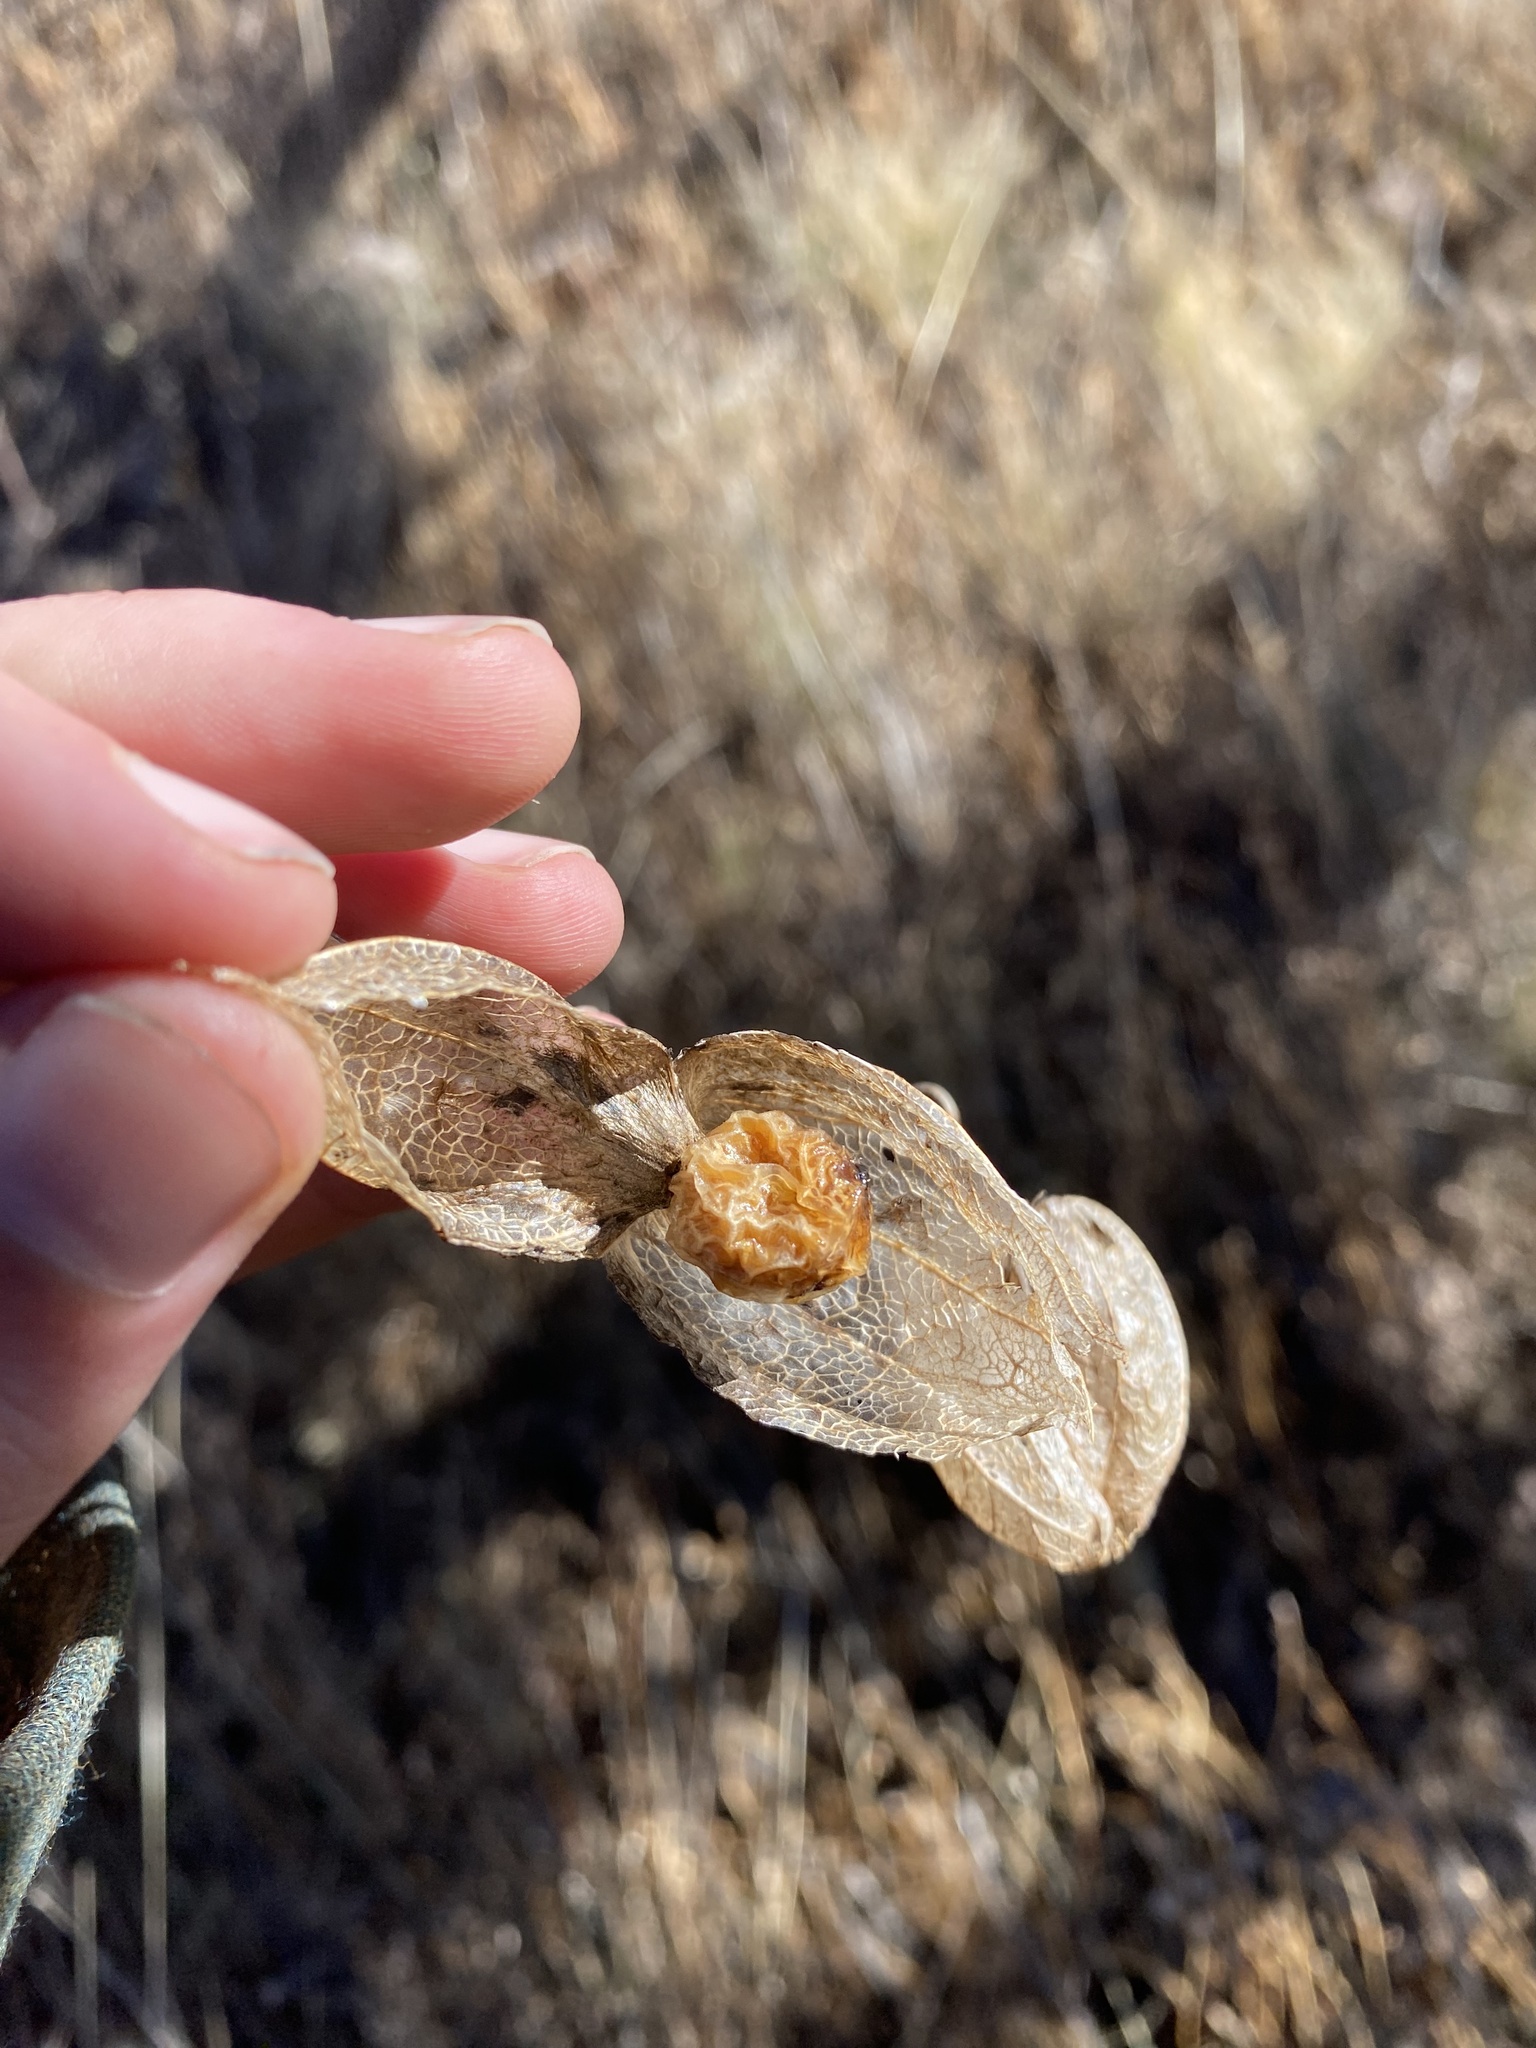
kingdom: Plantae
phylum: Tracheophyta
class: Magnoliopsida
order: Solanales
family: Solanaceae
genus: Physalis
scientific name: Physalis
